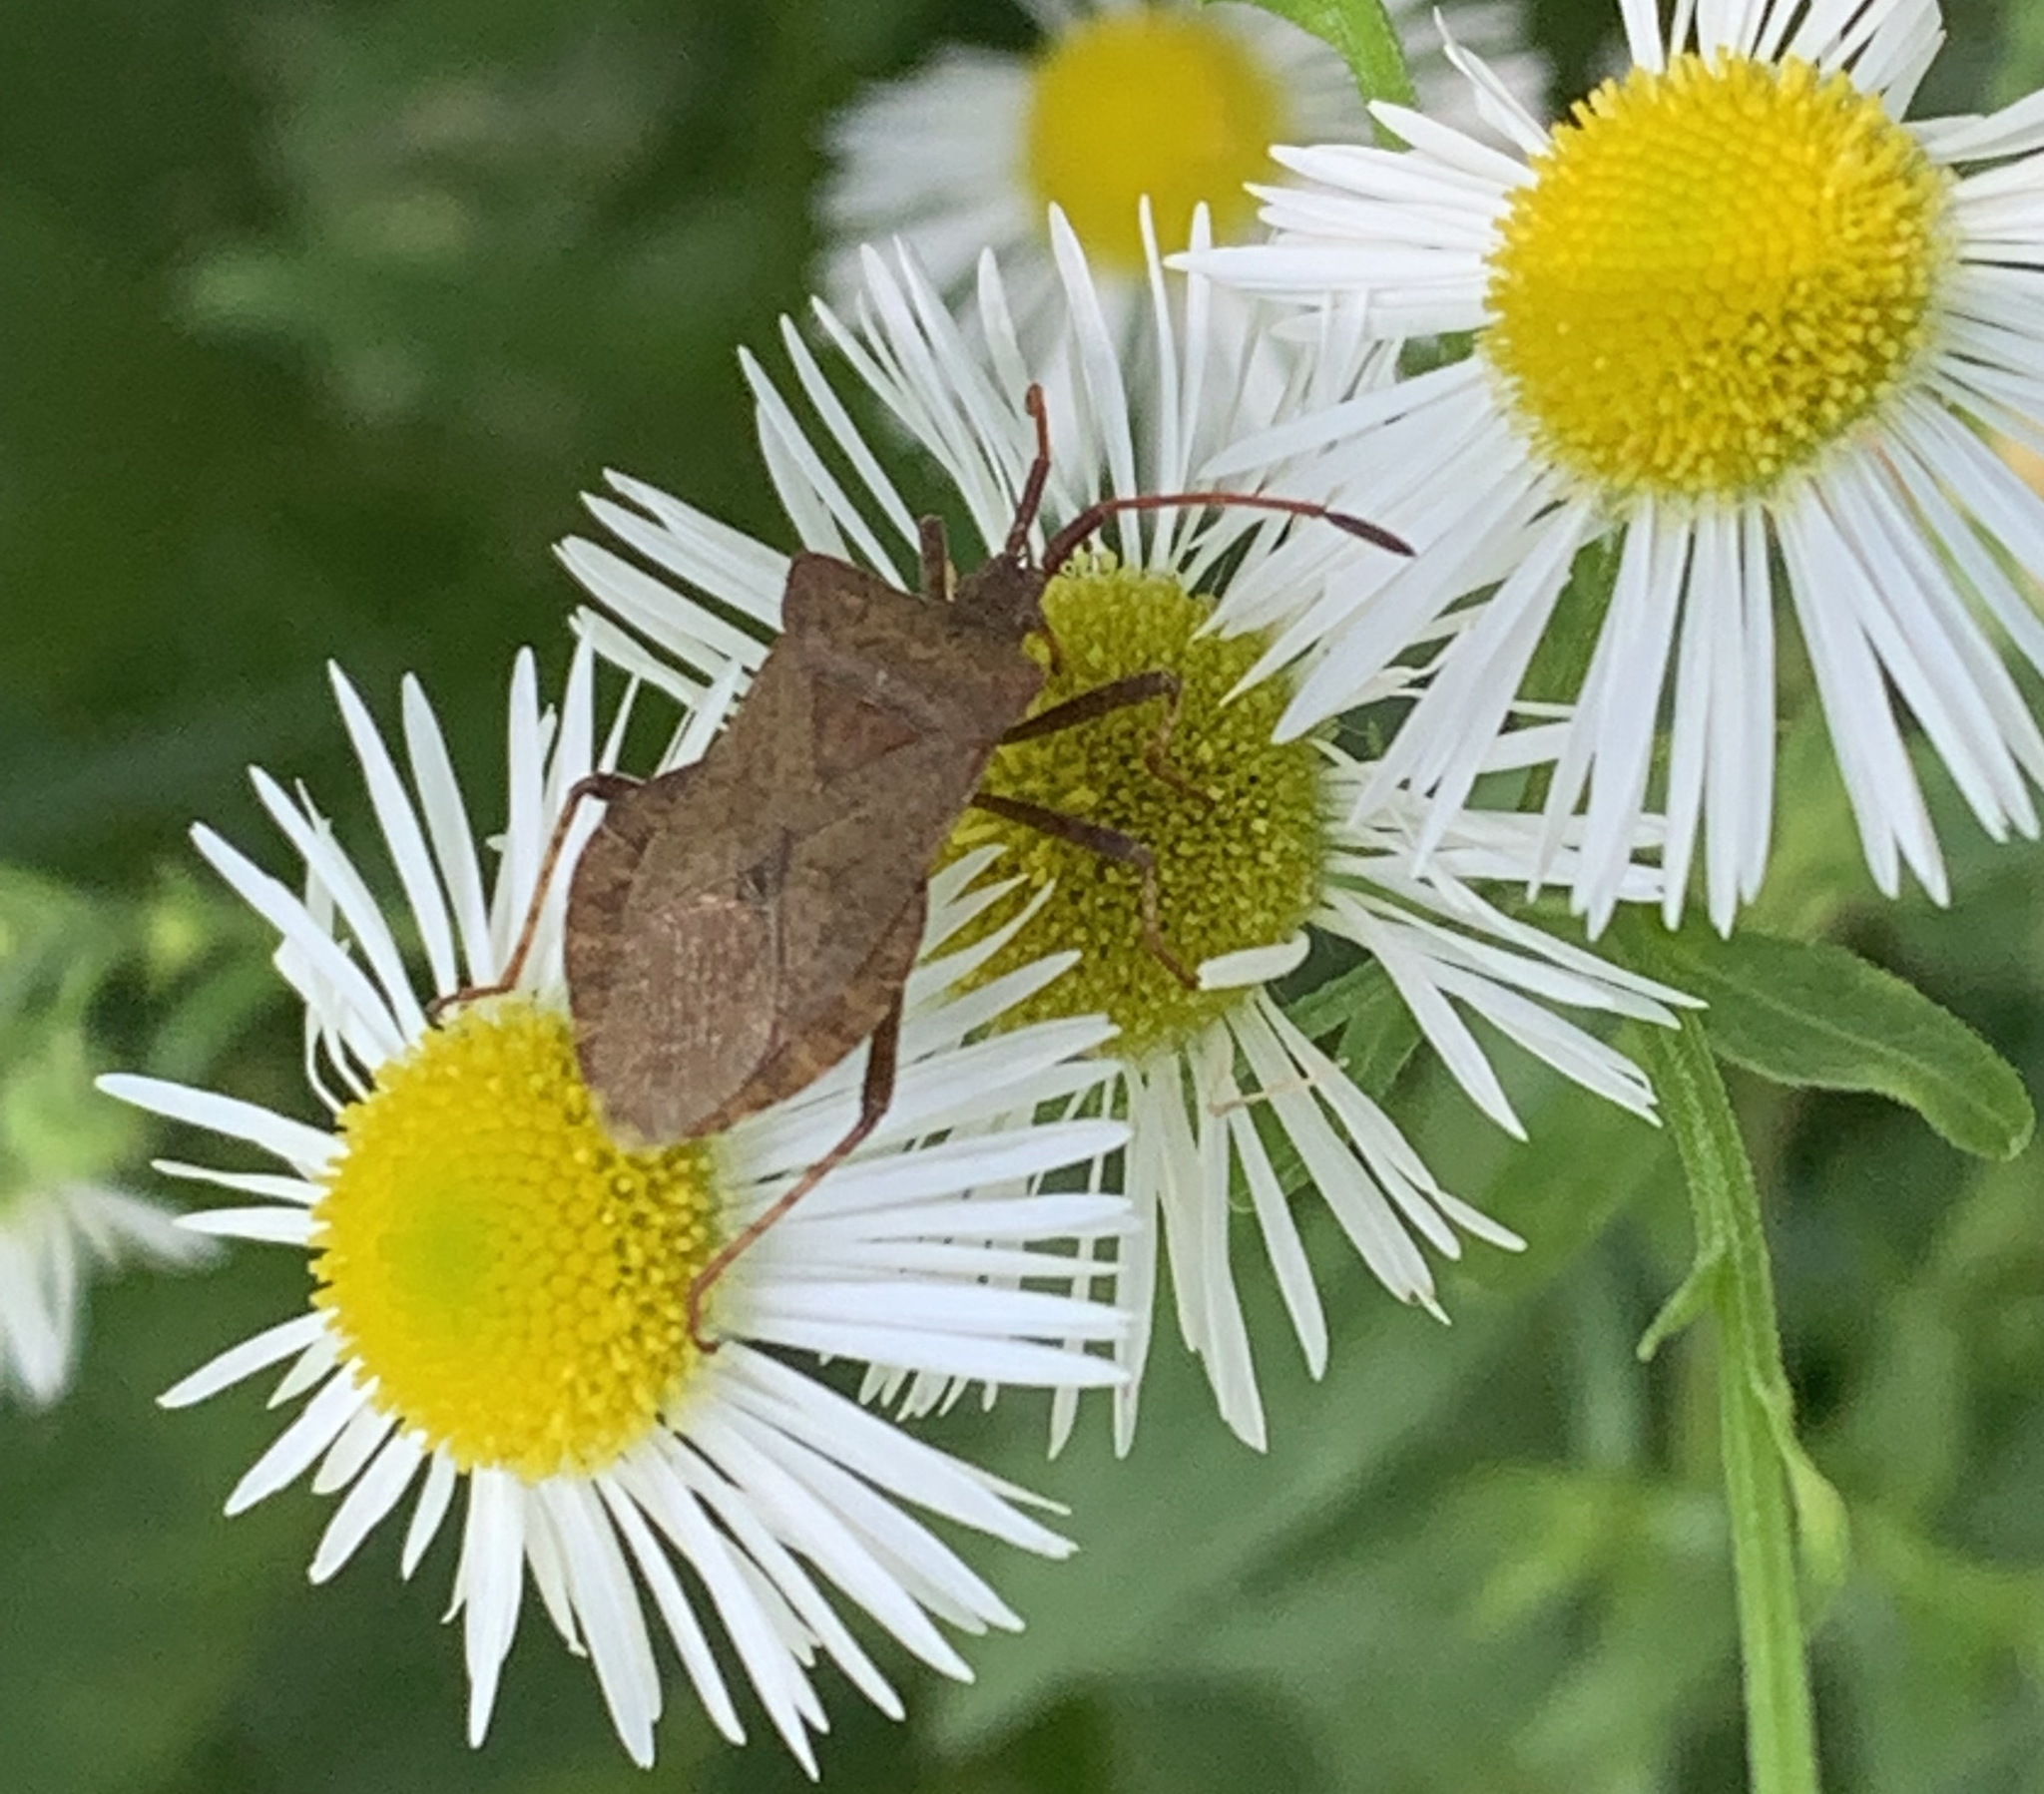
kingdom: Animalia
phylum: Arthropoda
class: Insecta
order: Hemiptera
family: Coreidae
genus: Coreus
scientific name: Coreus marginatus
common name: Dock bug
